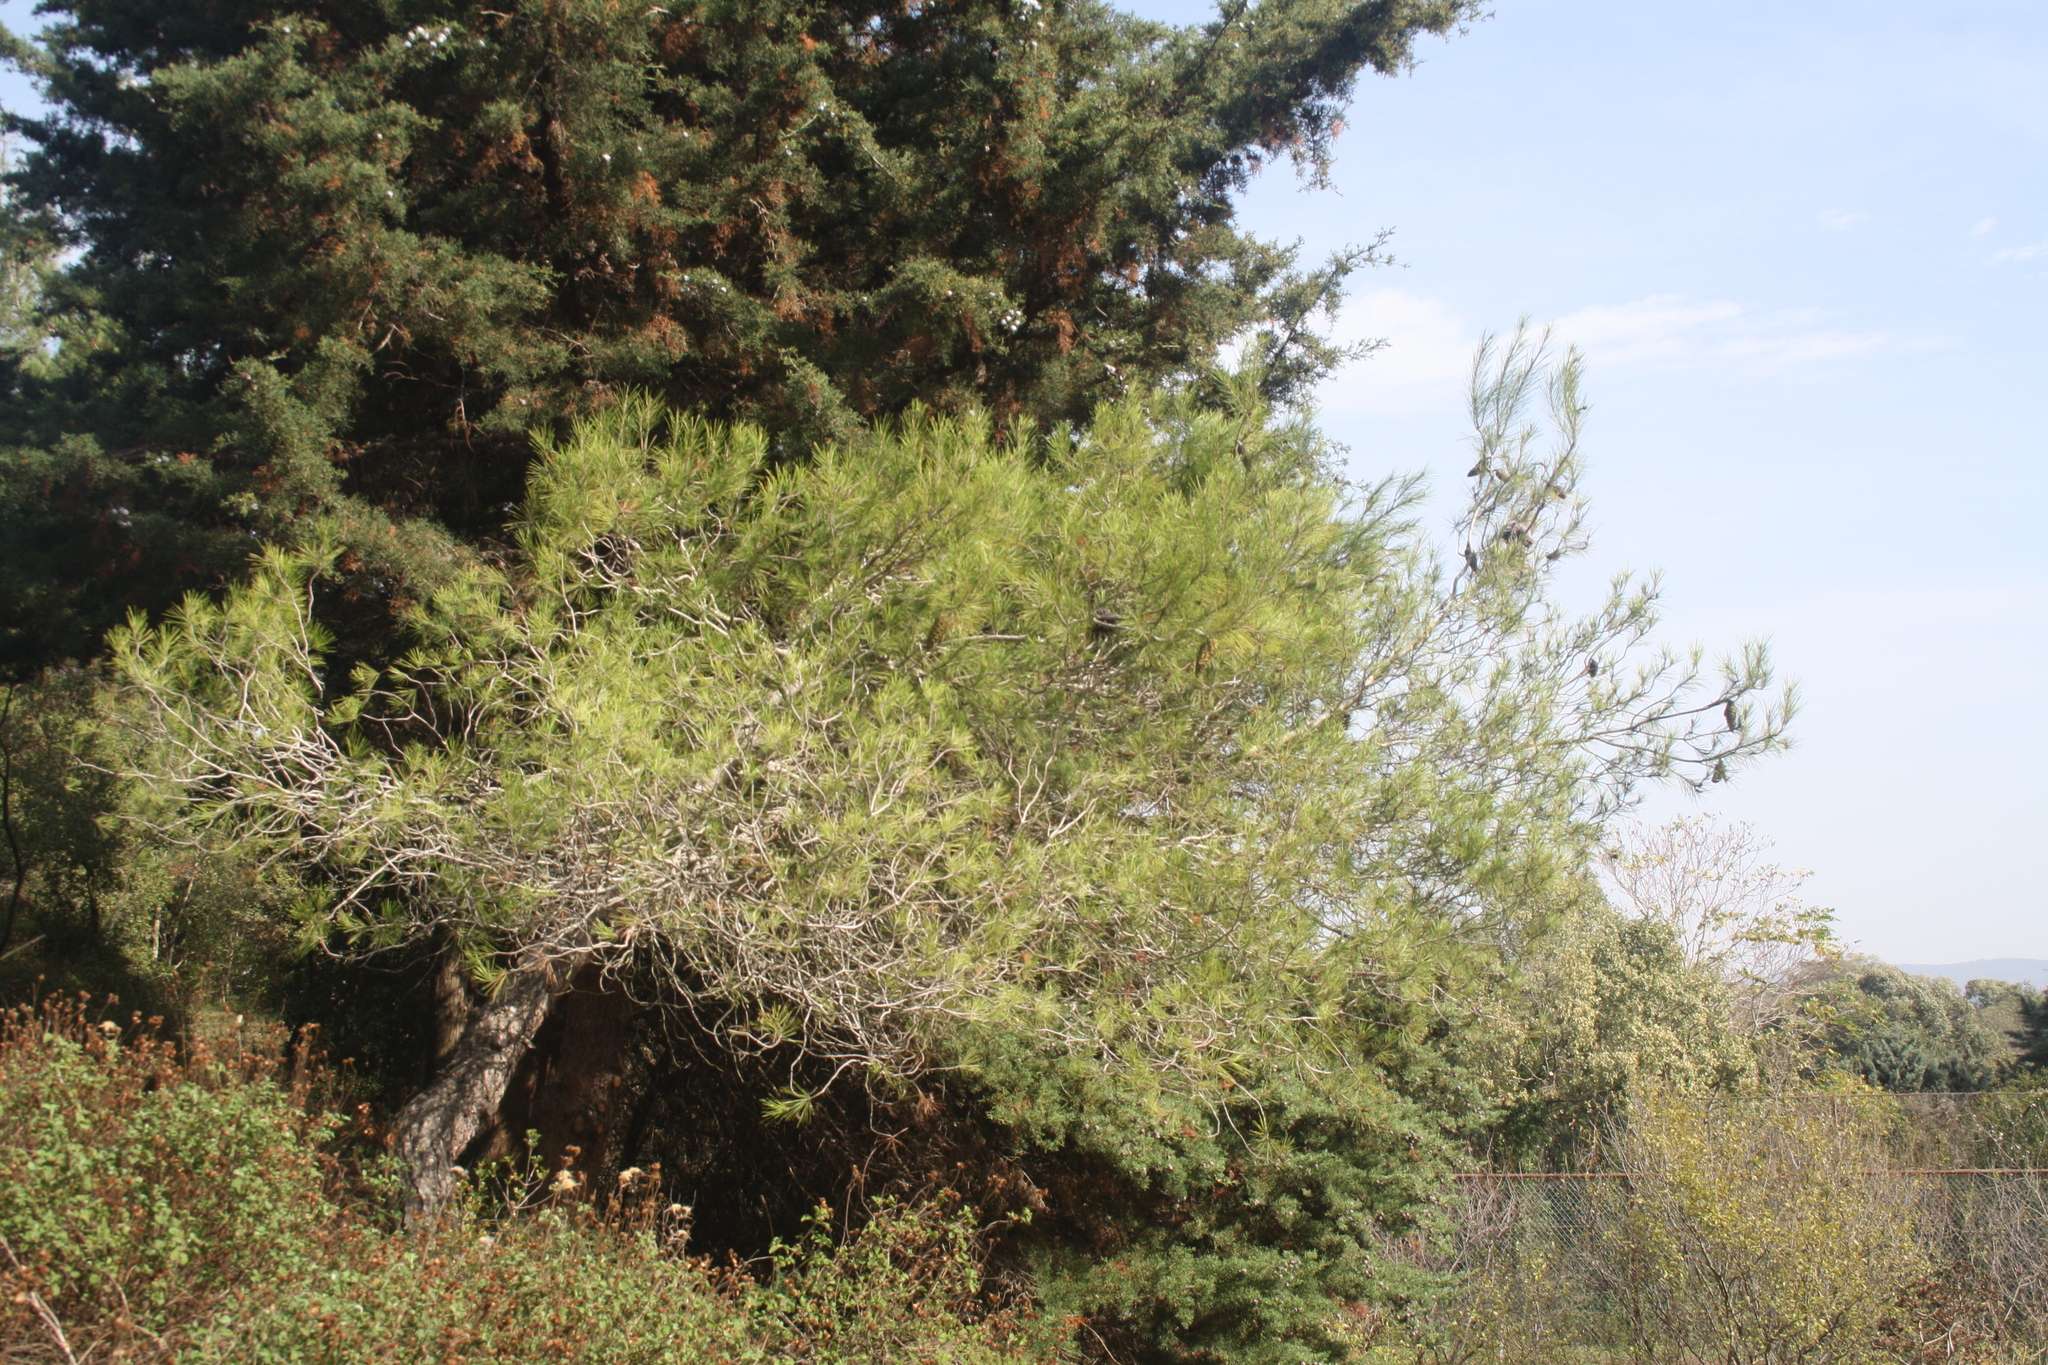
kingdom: Plantae
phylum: Tracheophyta
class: Pinopsida
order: Pinales
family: Pinaceae
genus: Pinus
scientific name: Pinus halepensis
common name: Aleppo pine
